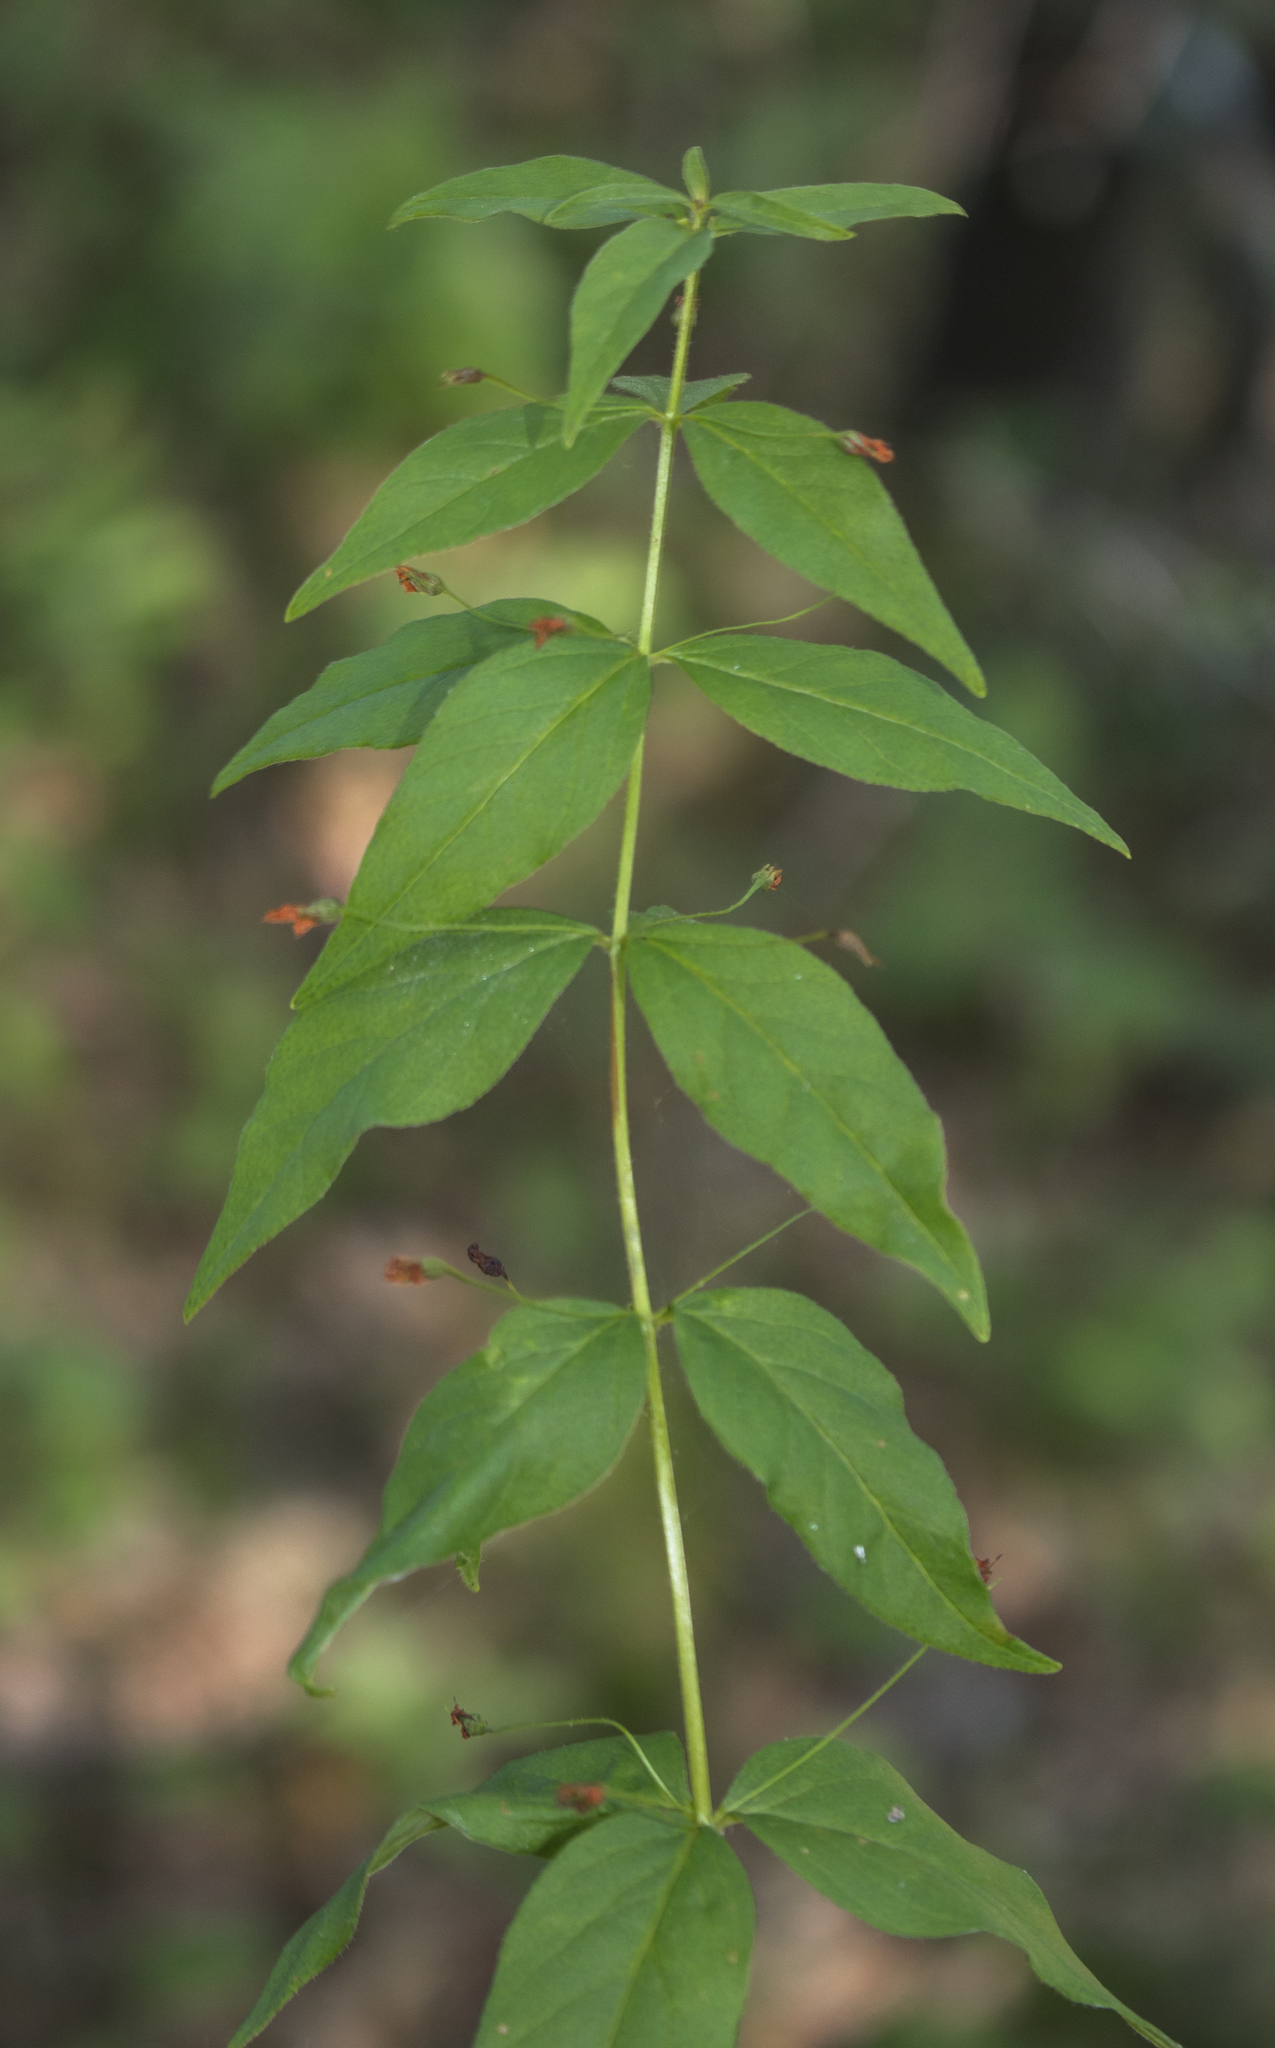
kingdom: Plantae
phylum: Tracheophyta
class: Magnoliopsida
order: Ericales
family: Primulaceae
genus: Lysimachia
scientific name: Lysimachia quadrifolia
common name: Whorled loosestrife
